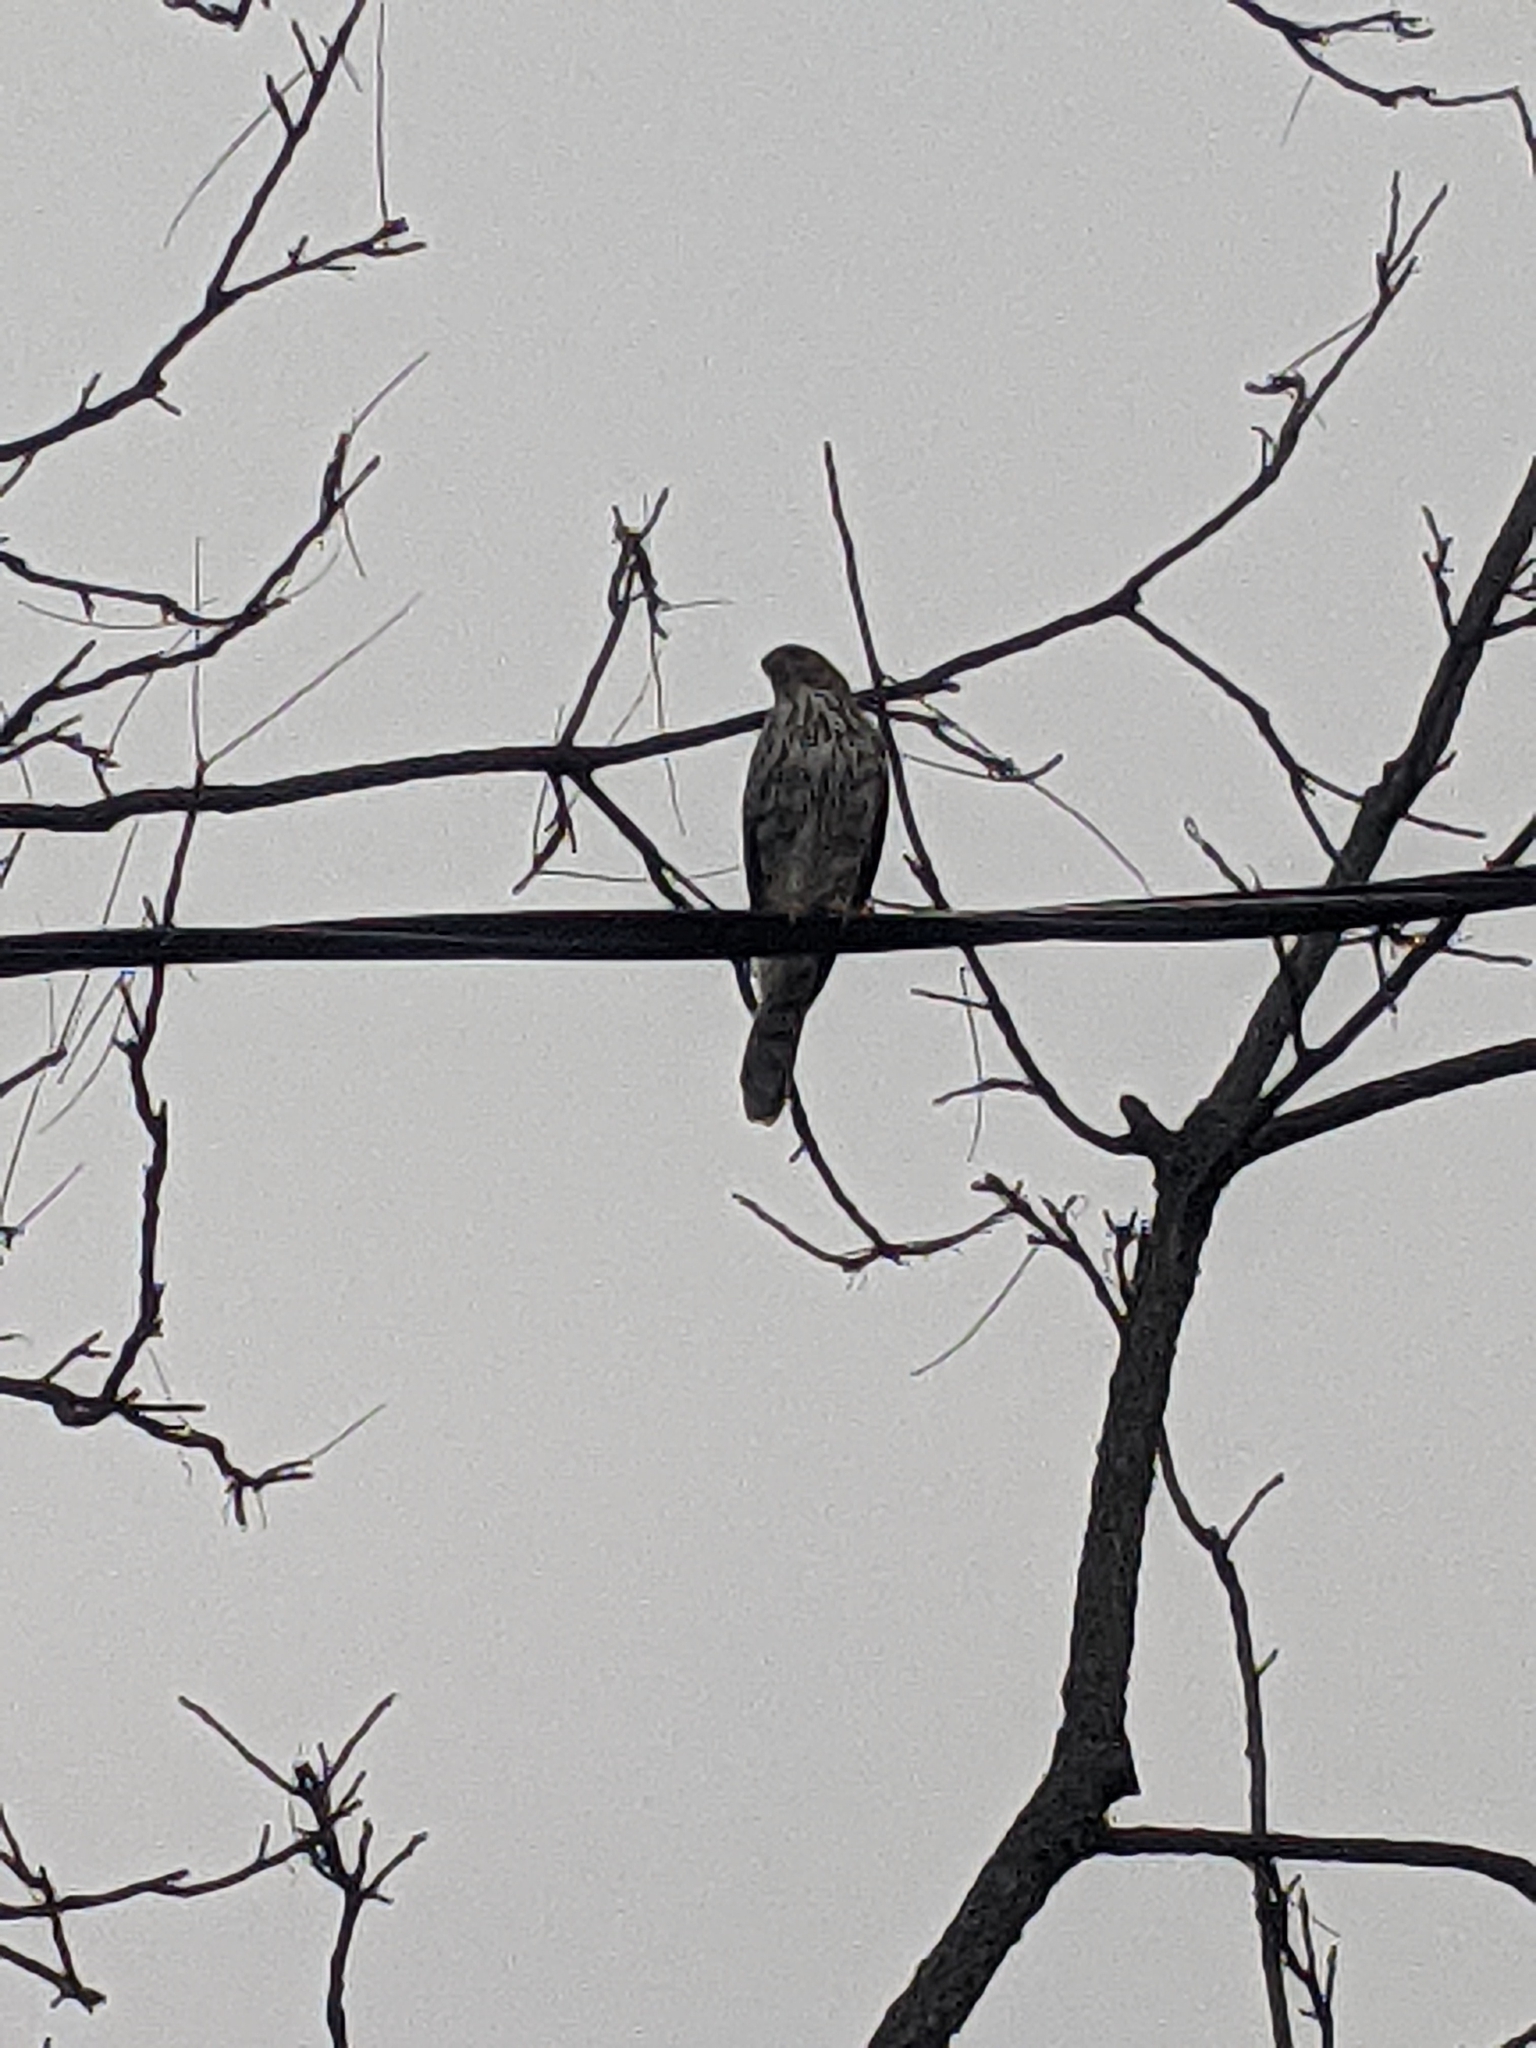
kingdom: Animalia
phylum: Chordata
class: Aves
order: Accipitriformes
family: Accipitridae
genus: Accipiter
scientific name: Accipiter cooperii
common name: Cooper's hawk
